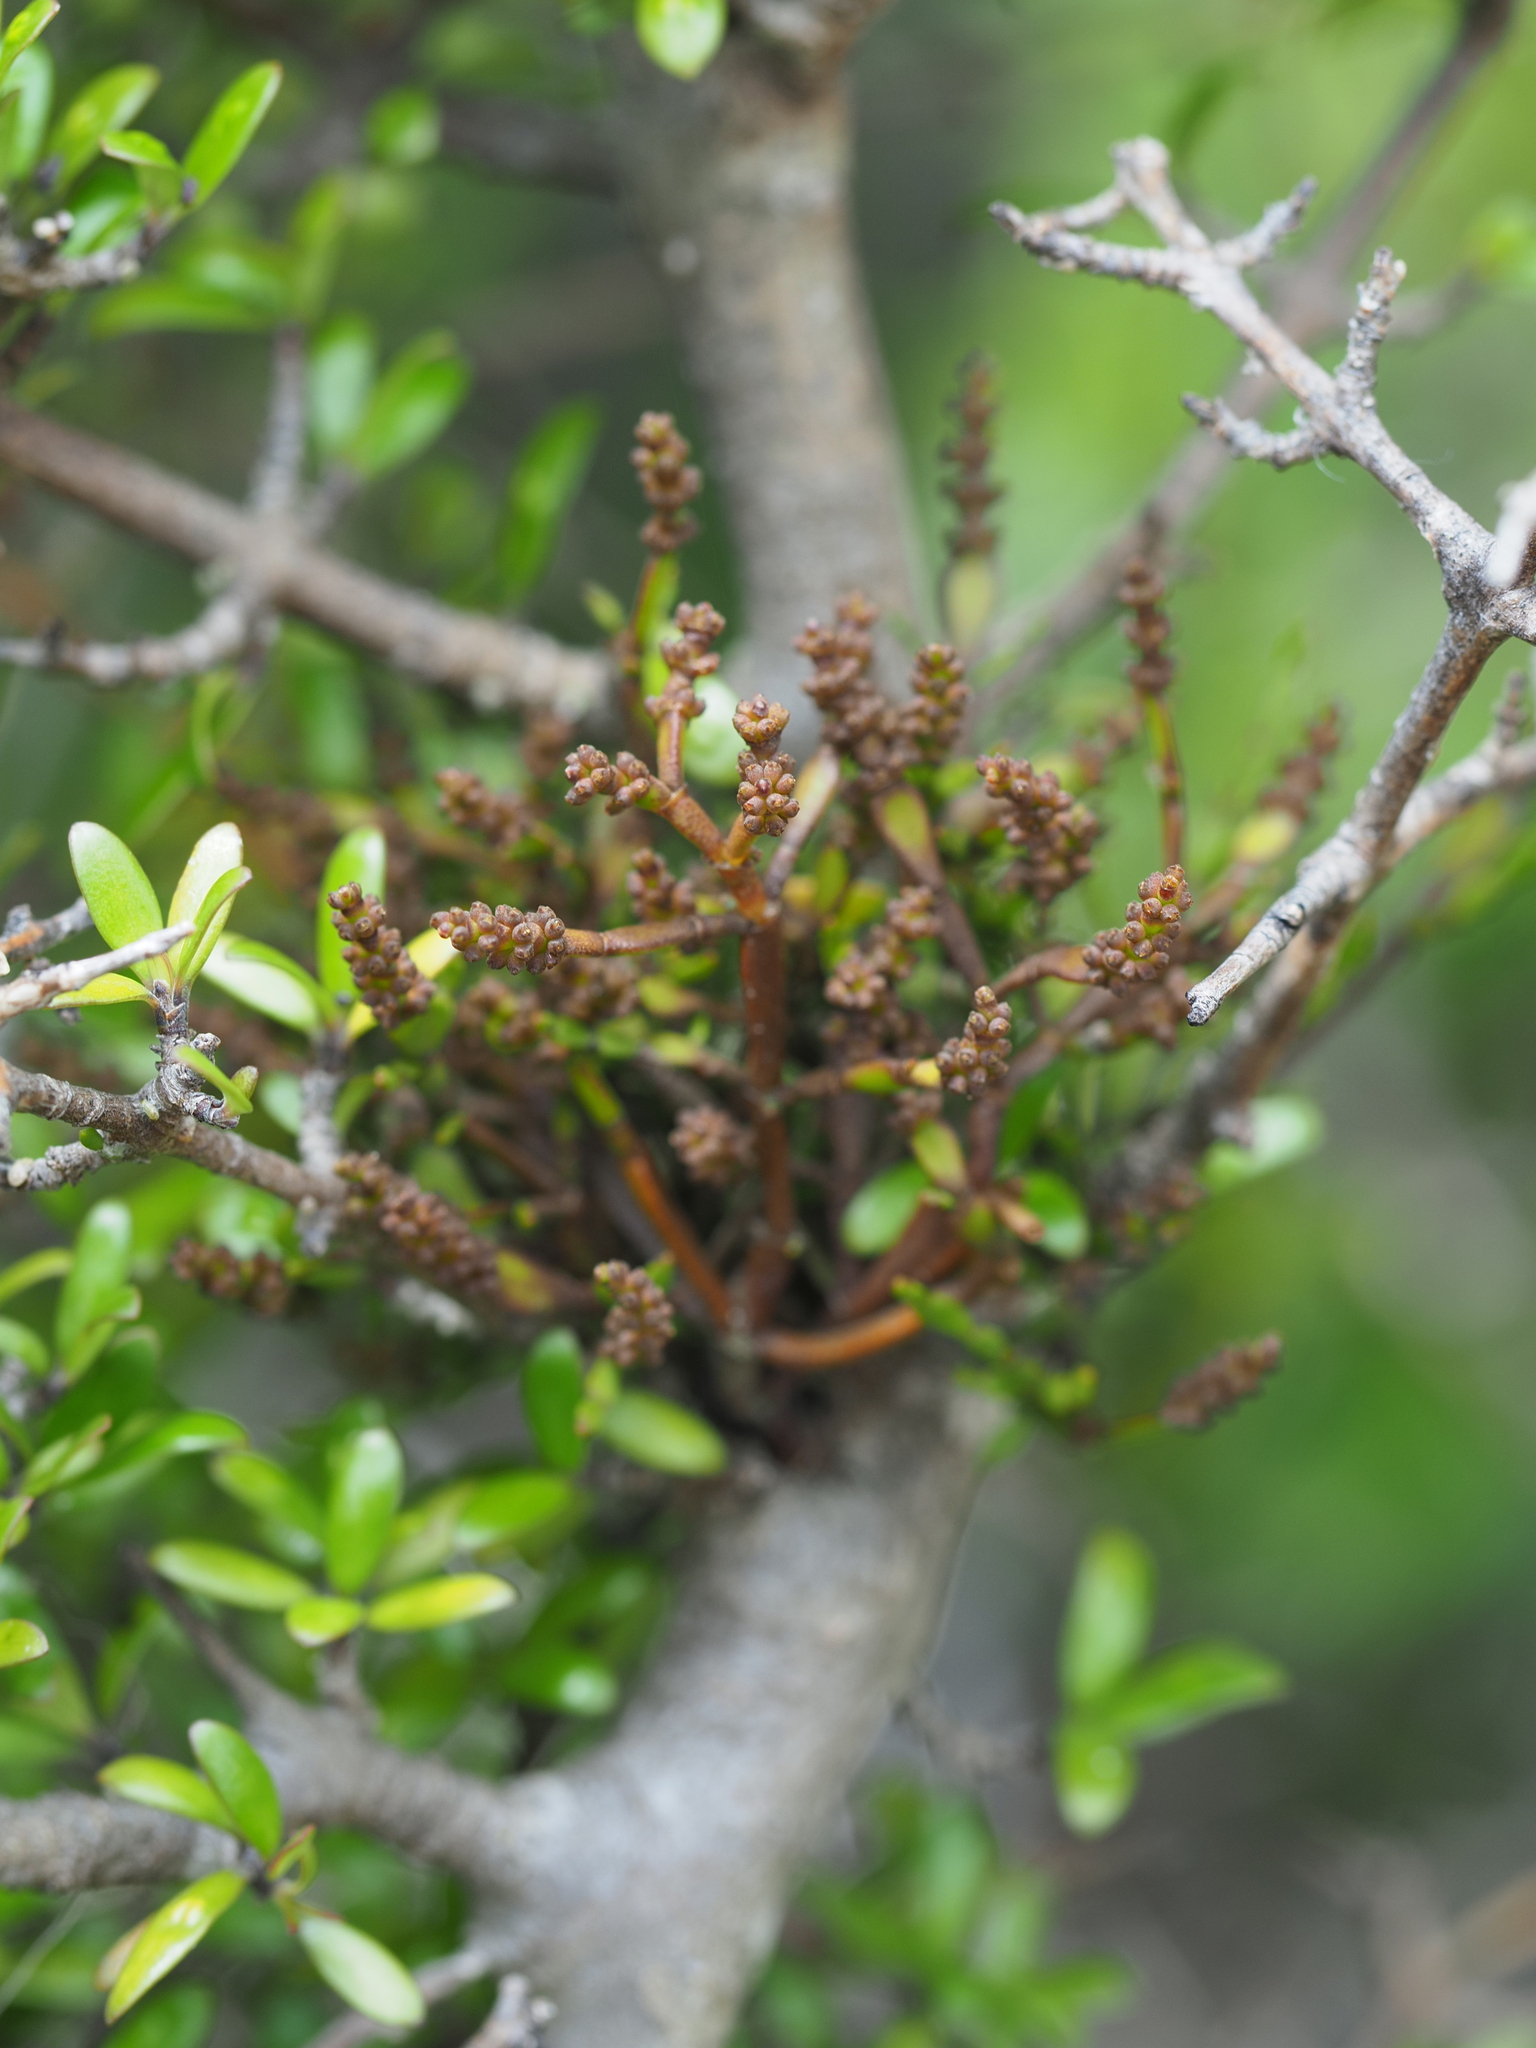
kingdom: Plantae
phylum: Tracheophyta
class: Magnoliopsida
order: Santalales
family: Viscaceae
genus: Korthalsella
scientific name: Korthalsella clavata
